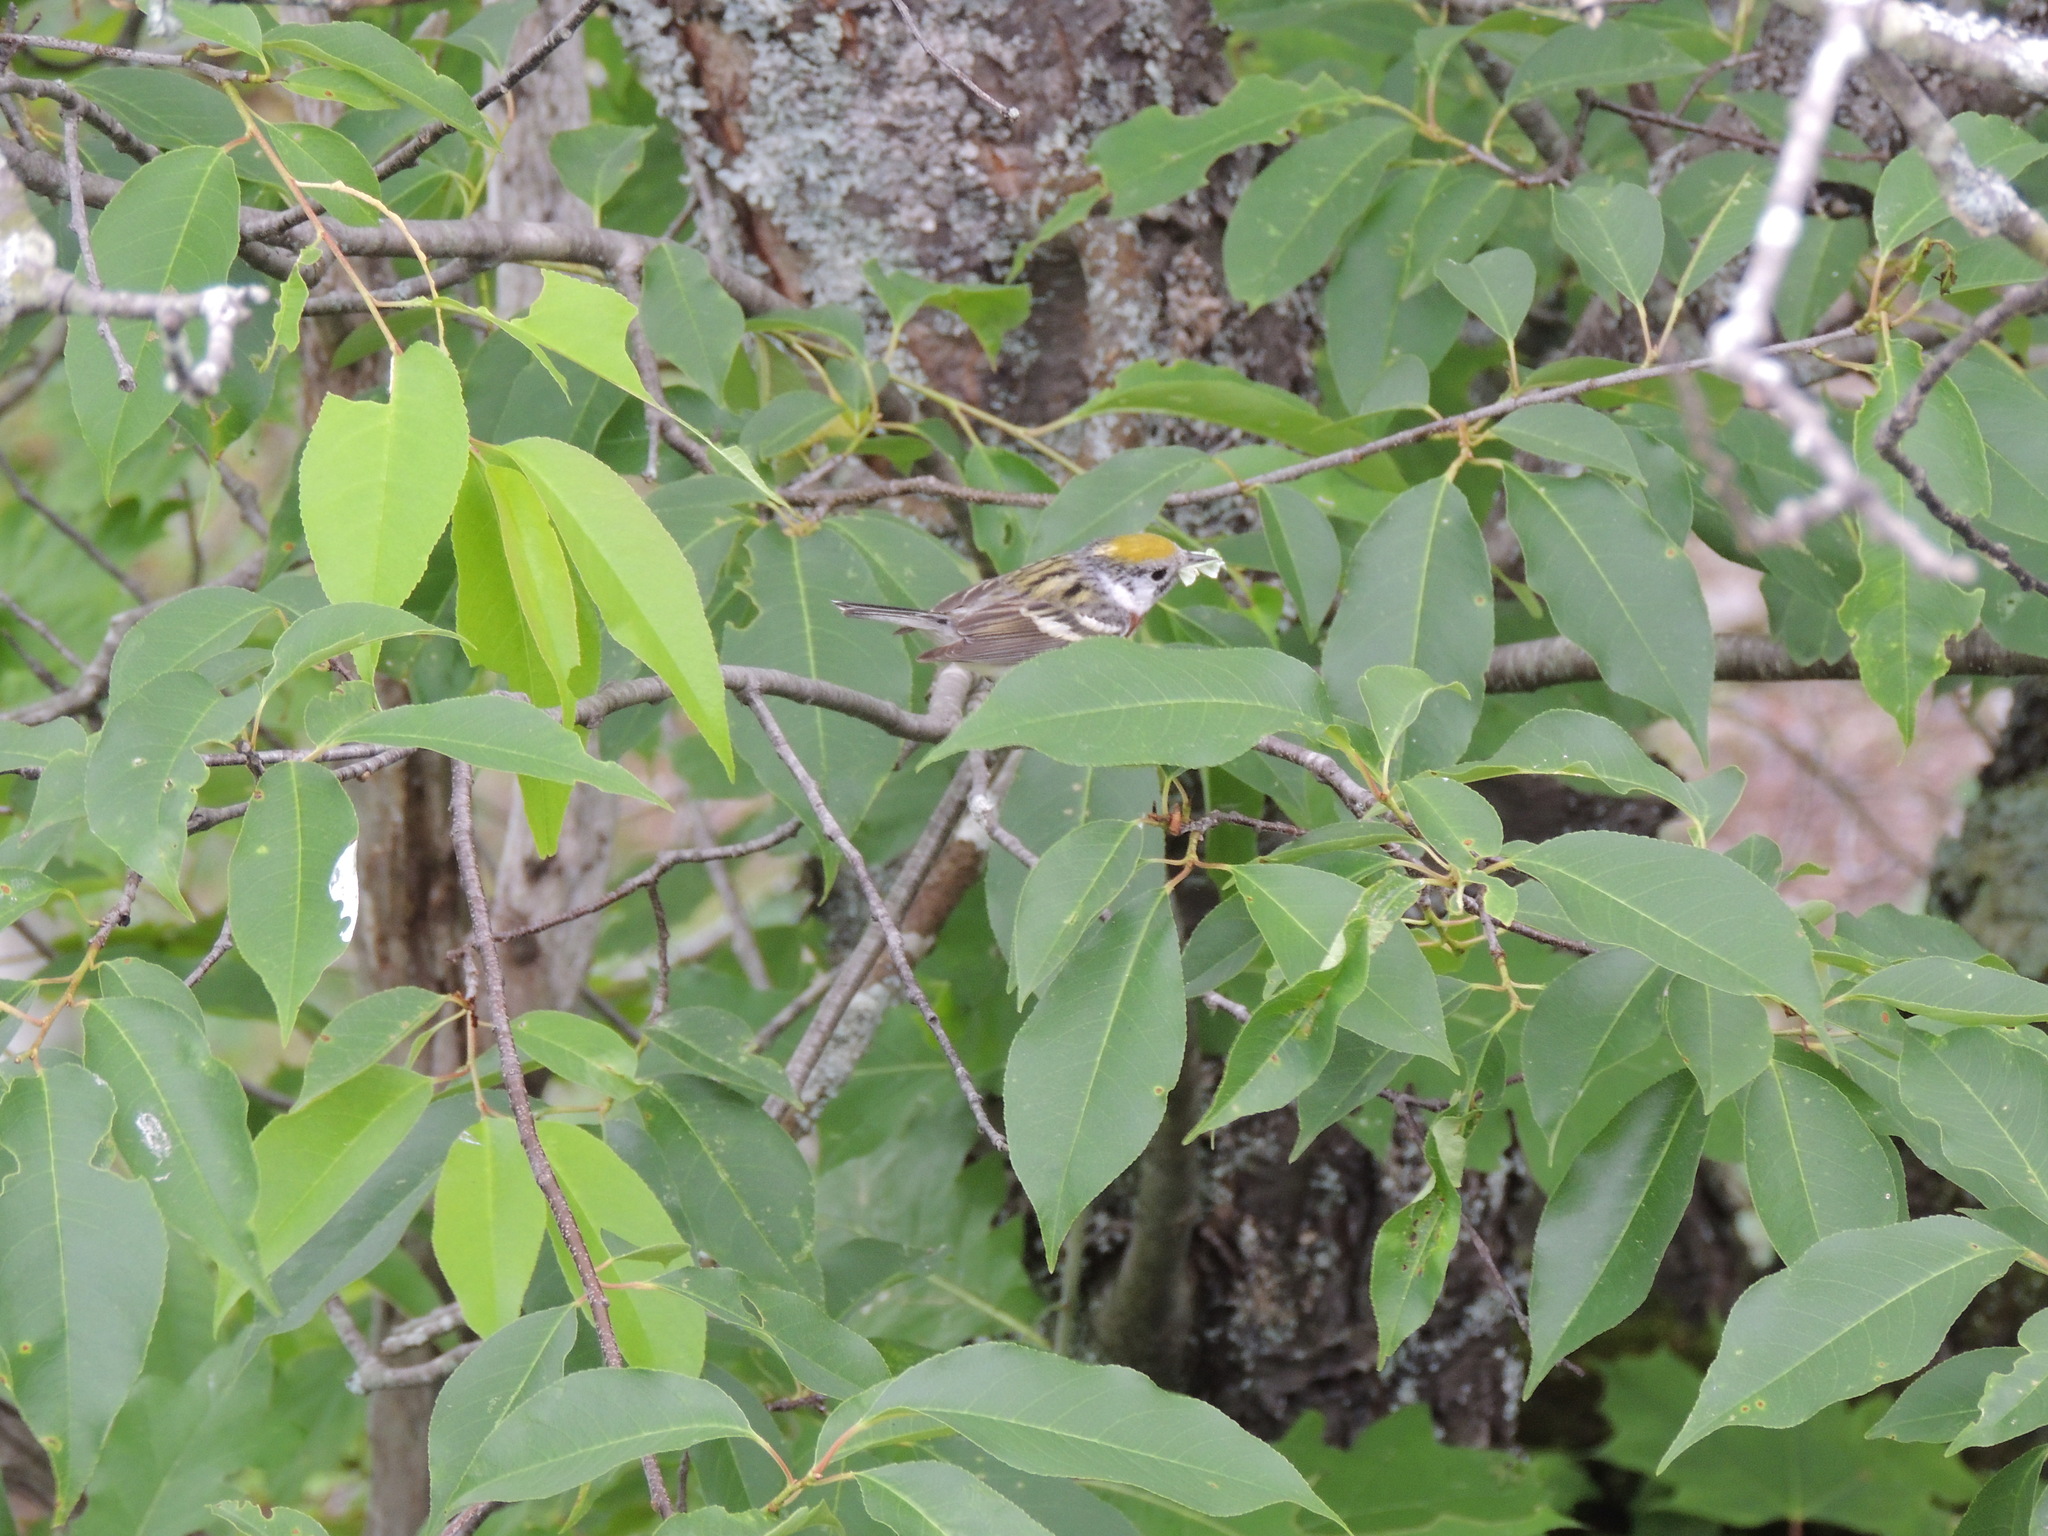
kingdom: Animalia
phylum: Chordata
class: Aves
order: Passeriformes
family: Parulidae
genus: Setophaga
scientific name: Setophaga pensylvanica
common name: Chestnut-sided warbler
